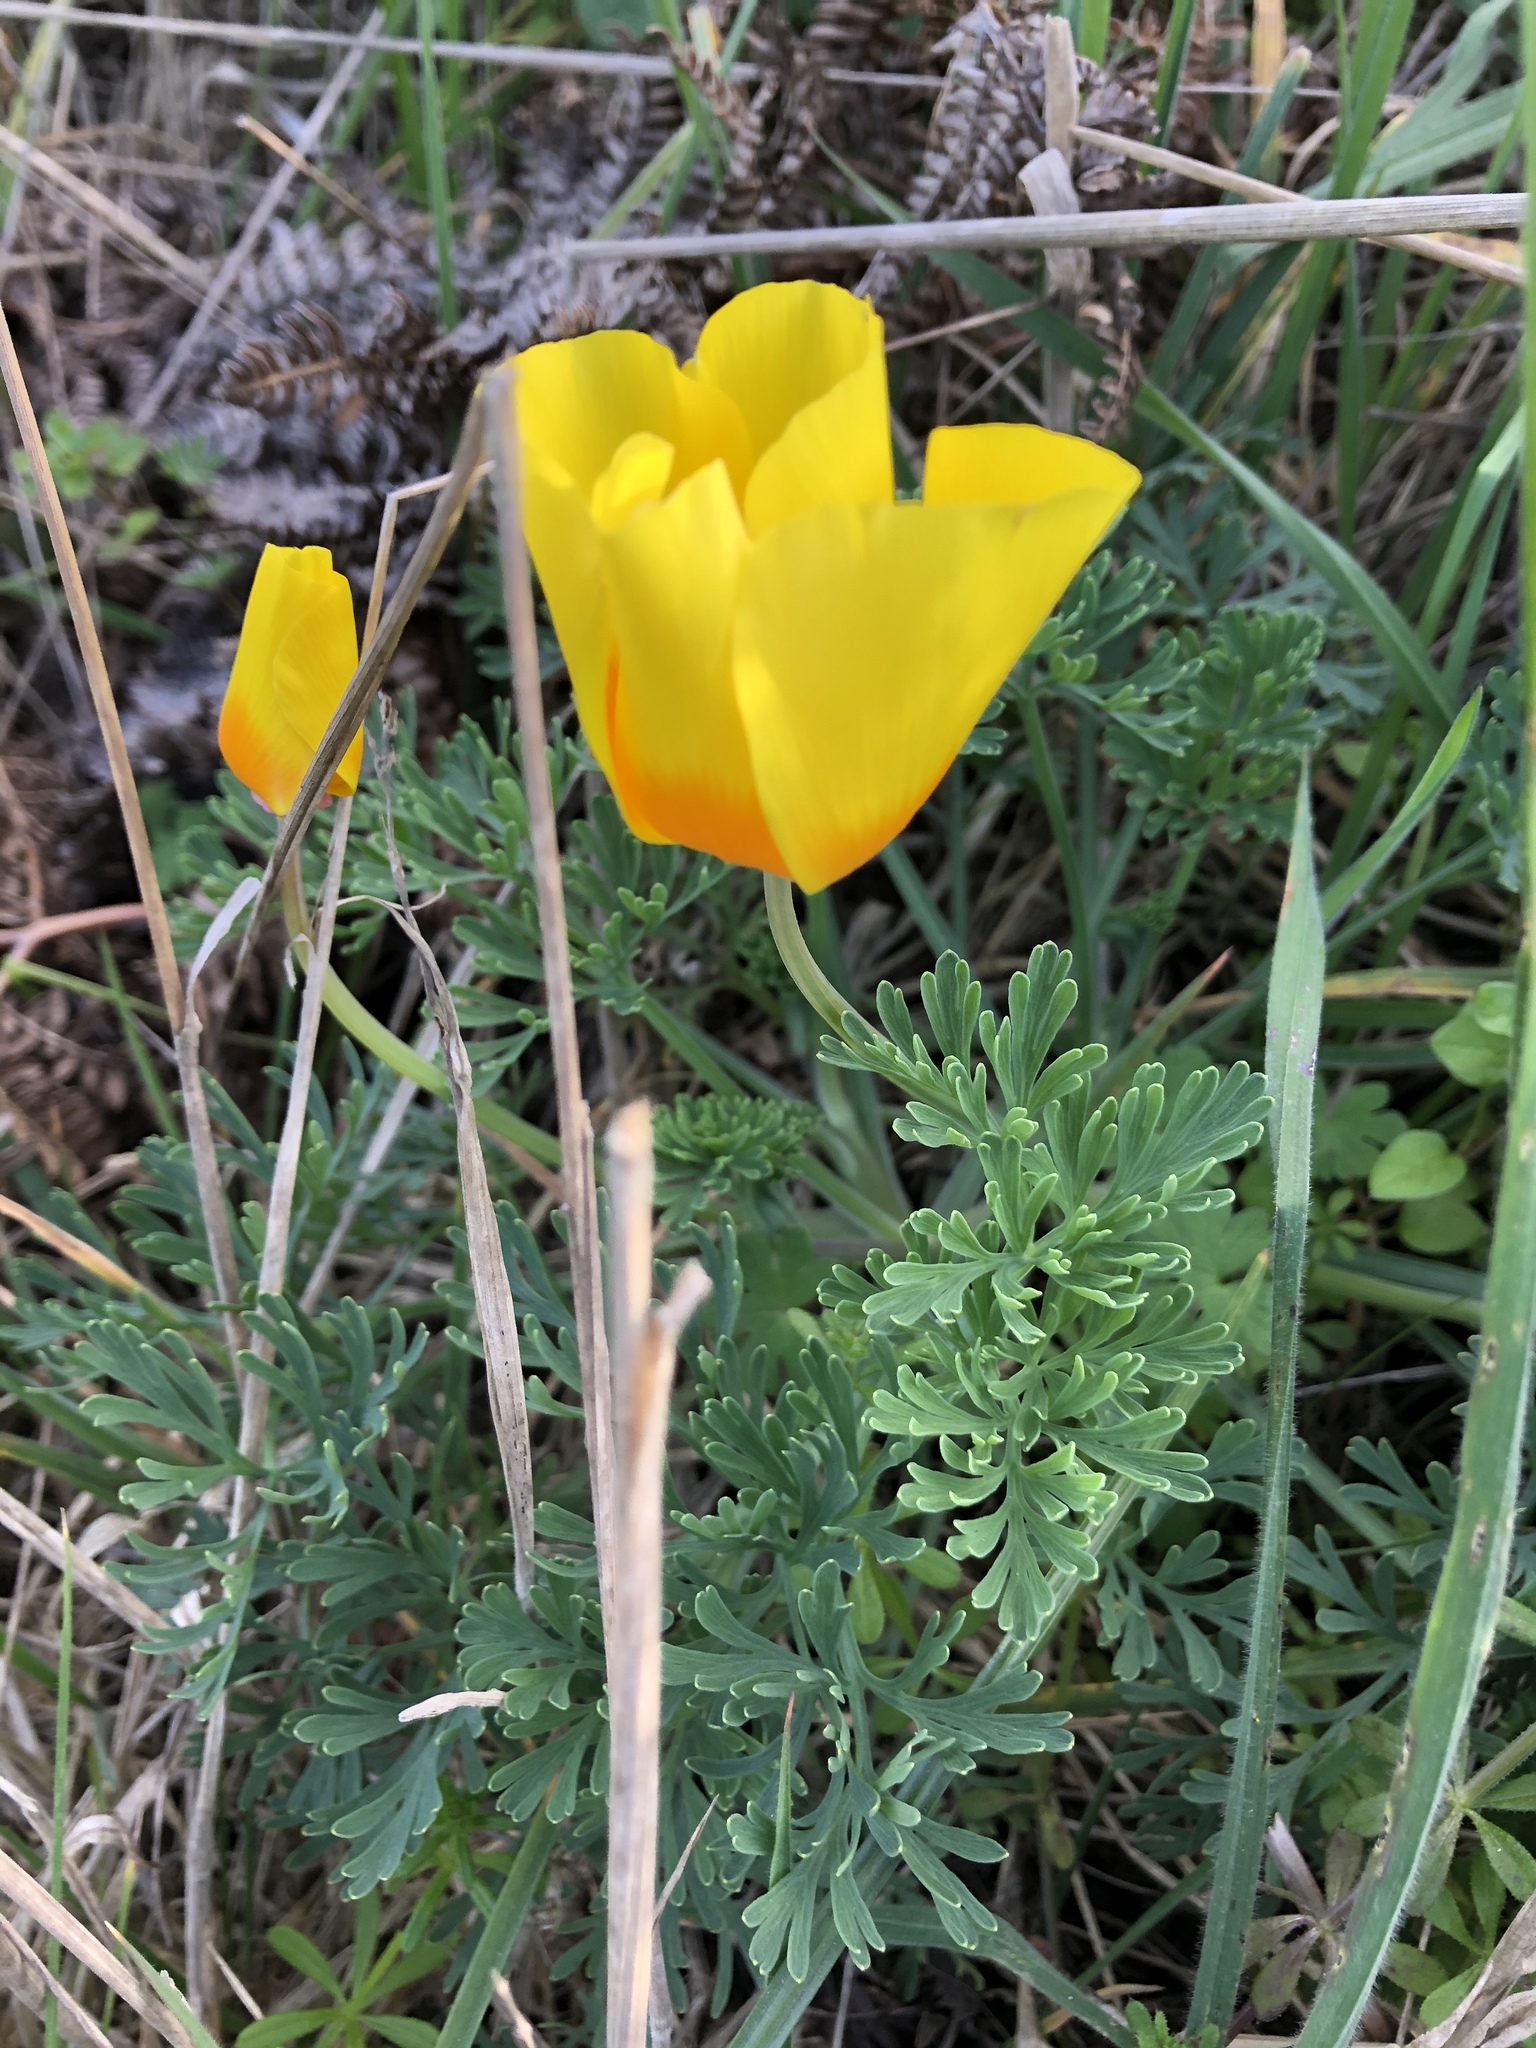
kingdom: Plantae
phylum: Tracheophyta
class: Magnoliopsida
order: Ranunculales
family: Papaveraceae
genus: Eschscholzia
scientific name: Eschscholzia californica
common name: California poppy
